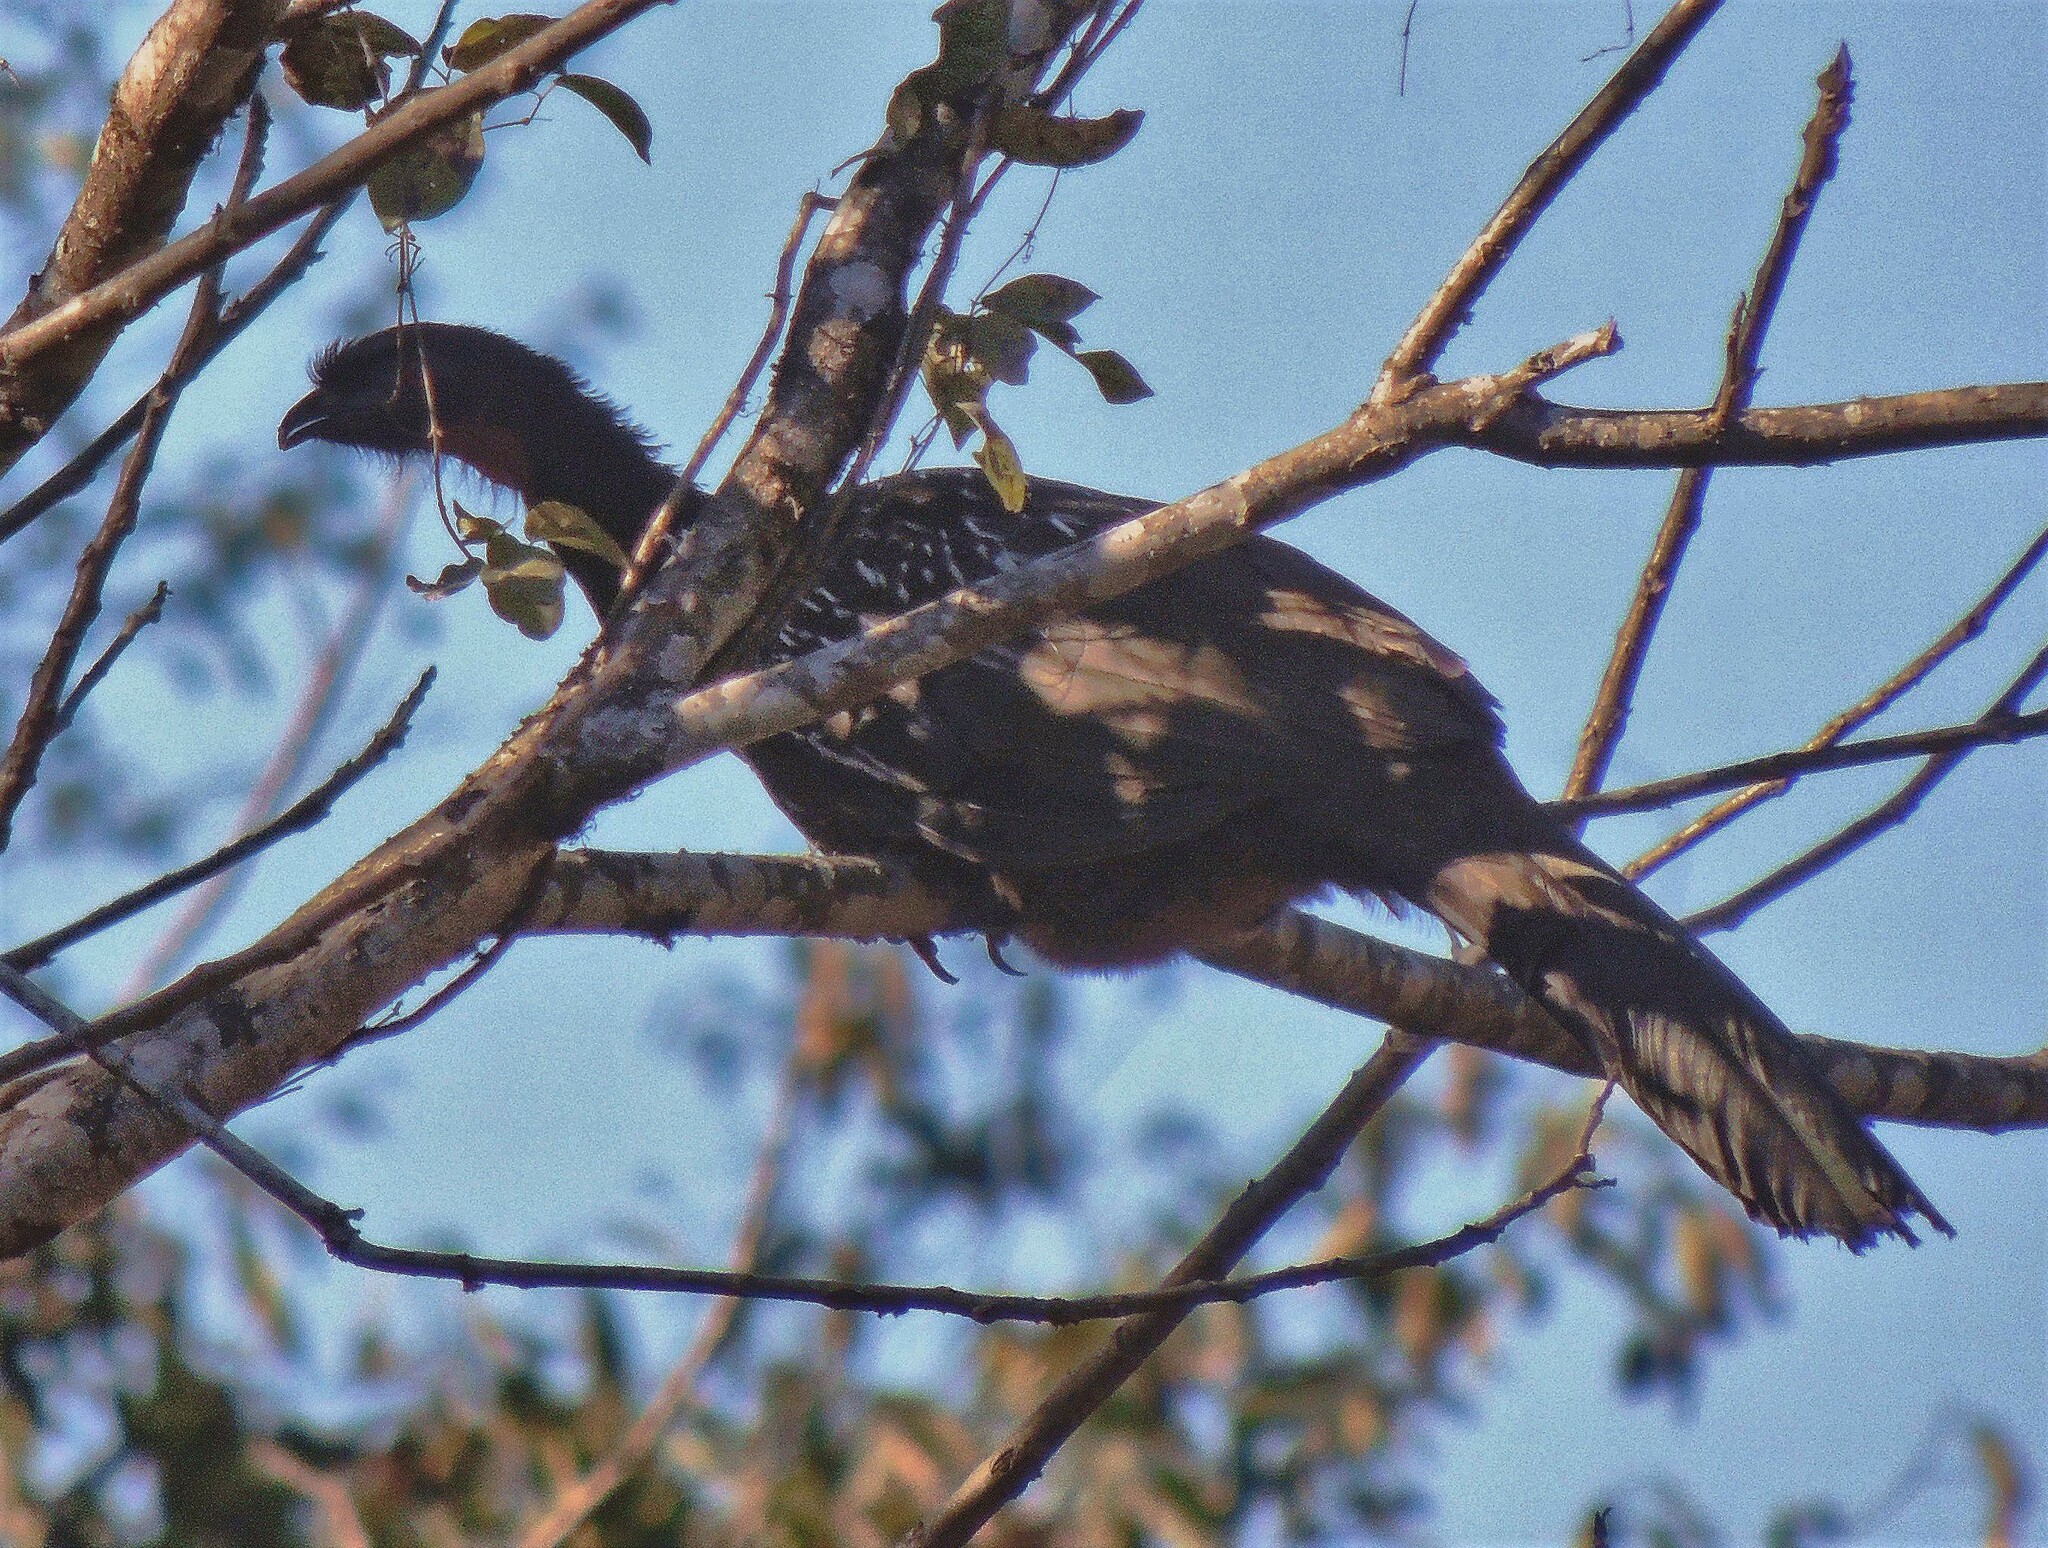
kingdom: Animalia
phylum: Chordata
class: Aves
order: Galliformes
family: Cracidae
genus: Penelope
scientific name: Penelope bridgesi
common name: Yungas guan
